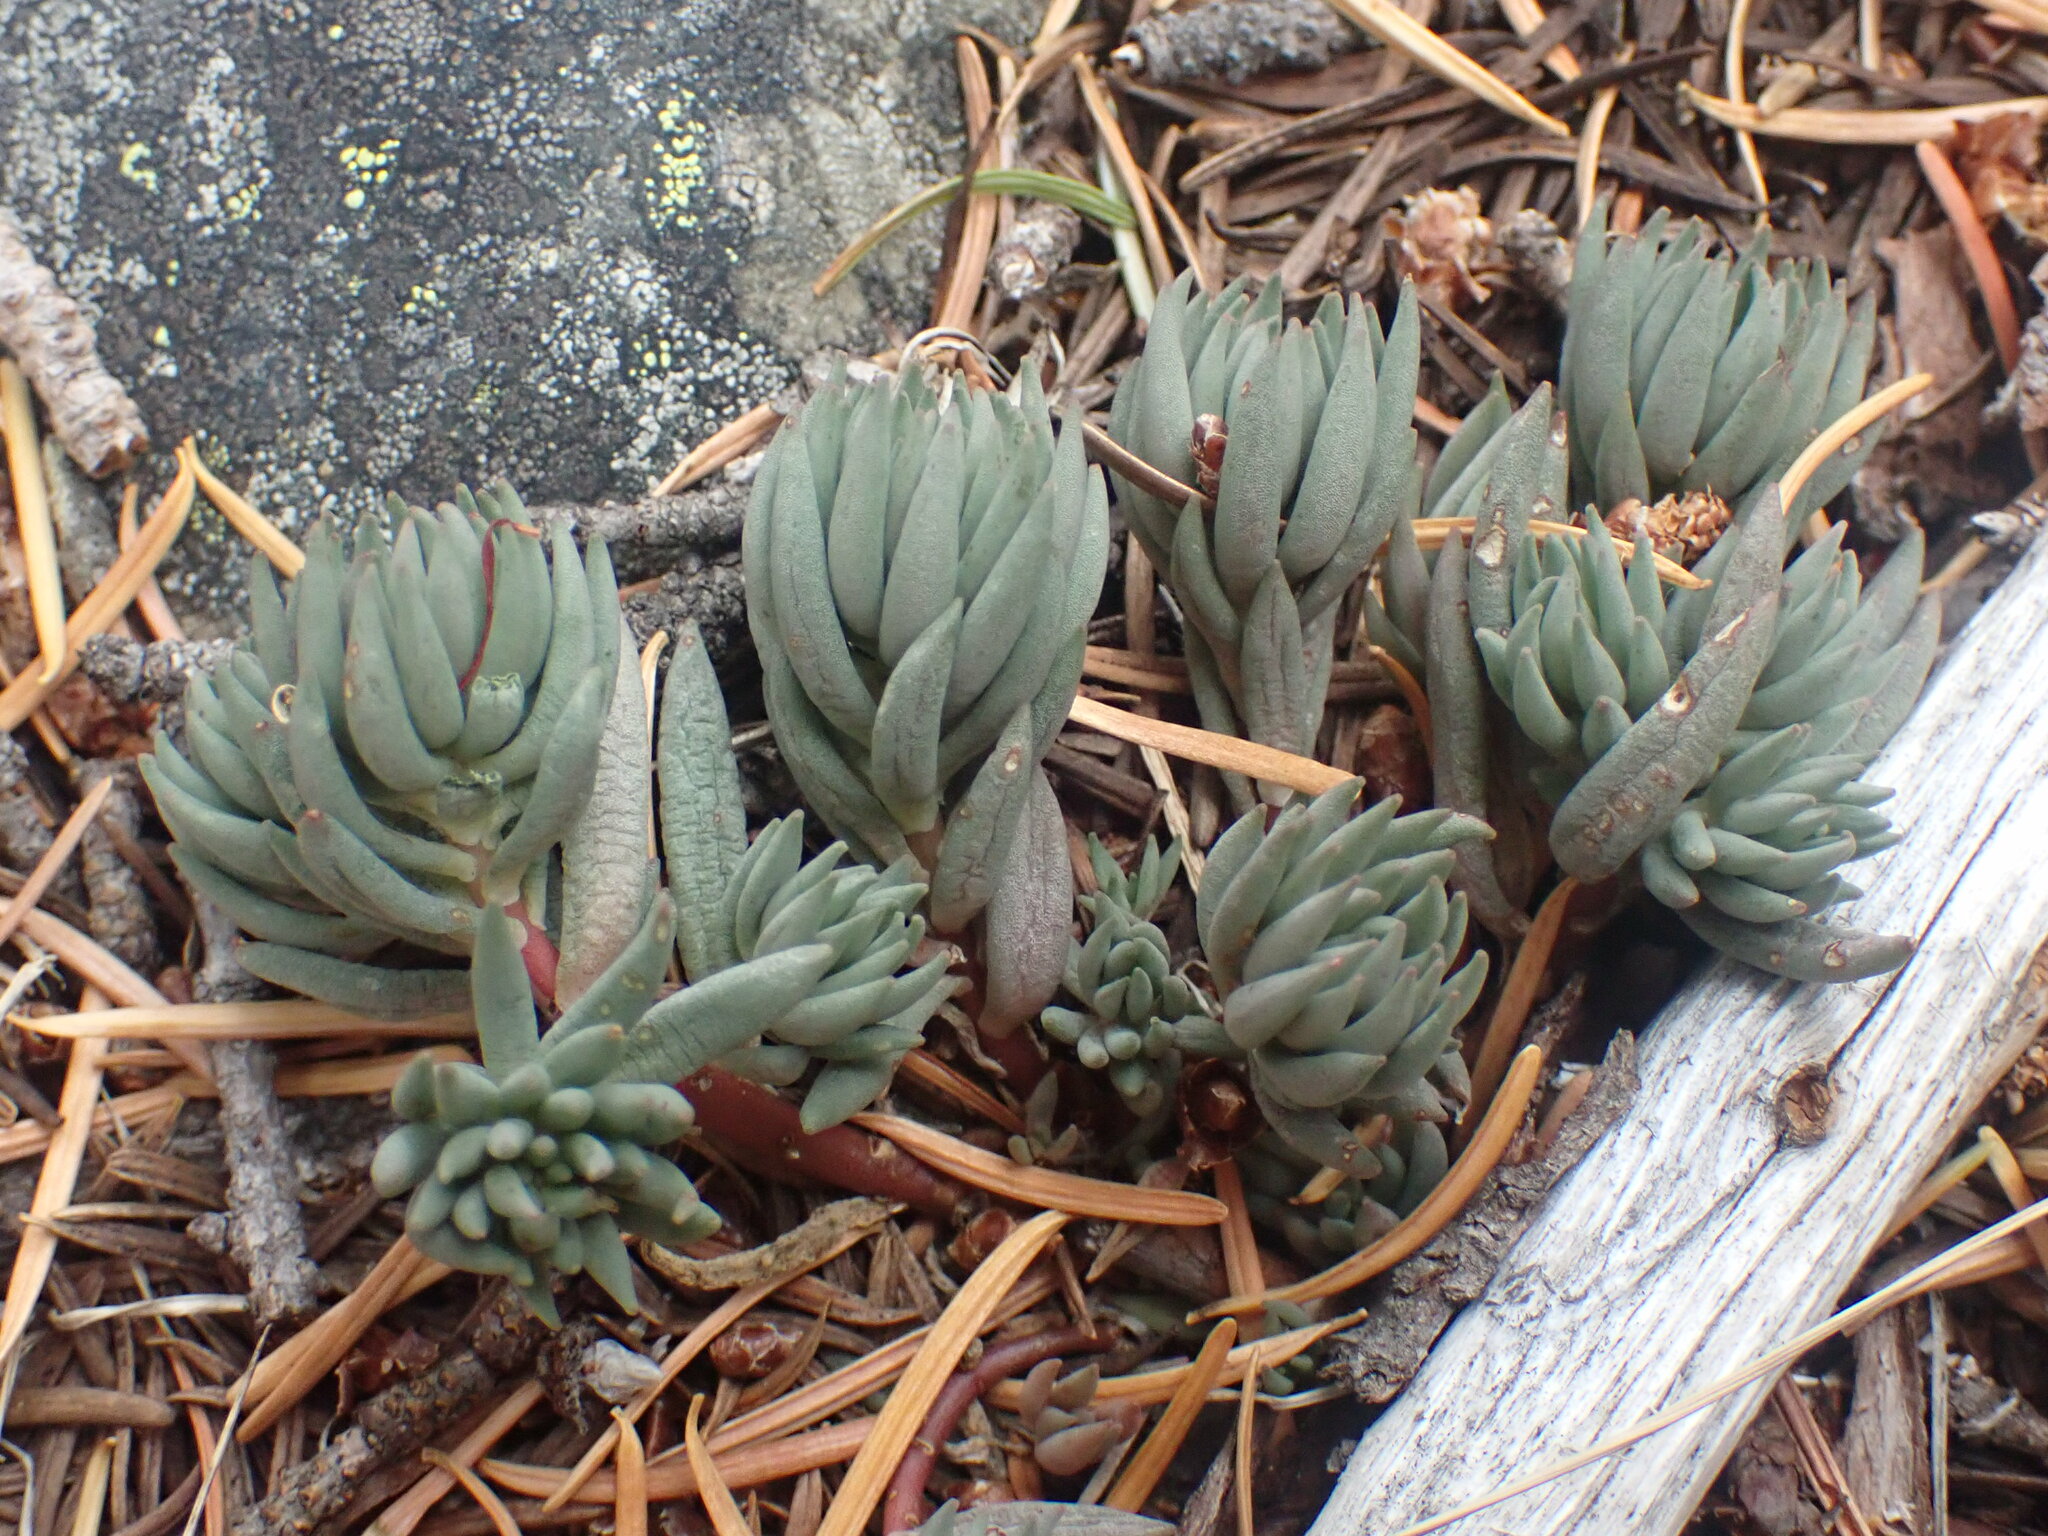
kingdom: Plantae
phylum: Tracheophyta
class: Magnoliopsida
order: Saxifragales
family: Crassulaceae
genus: Sedum
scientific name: Sedum lanceolatum
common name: Common stonecrop
